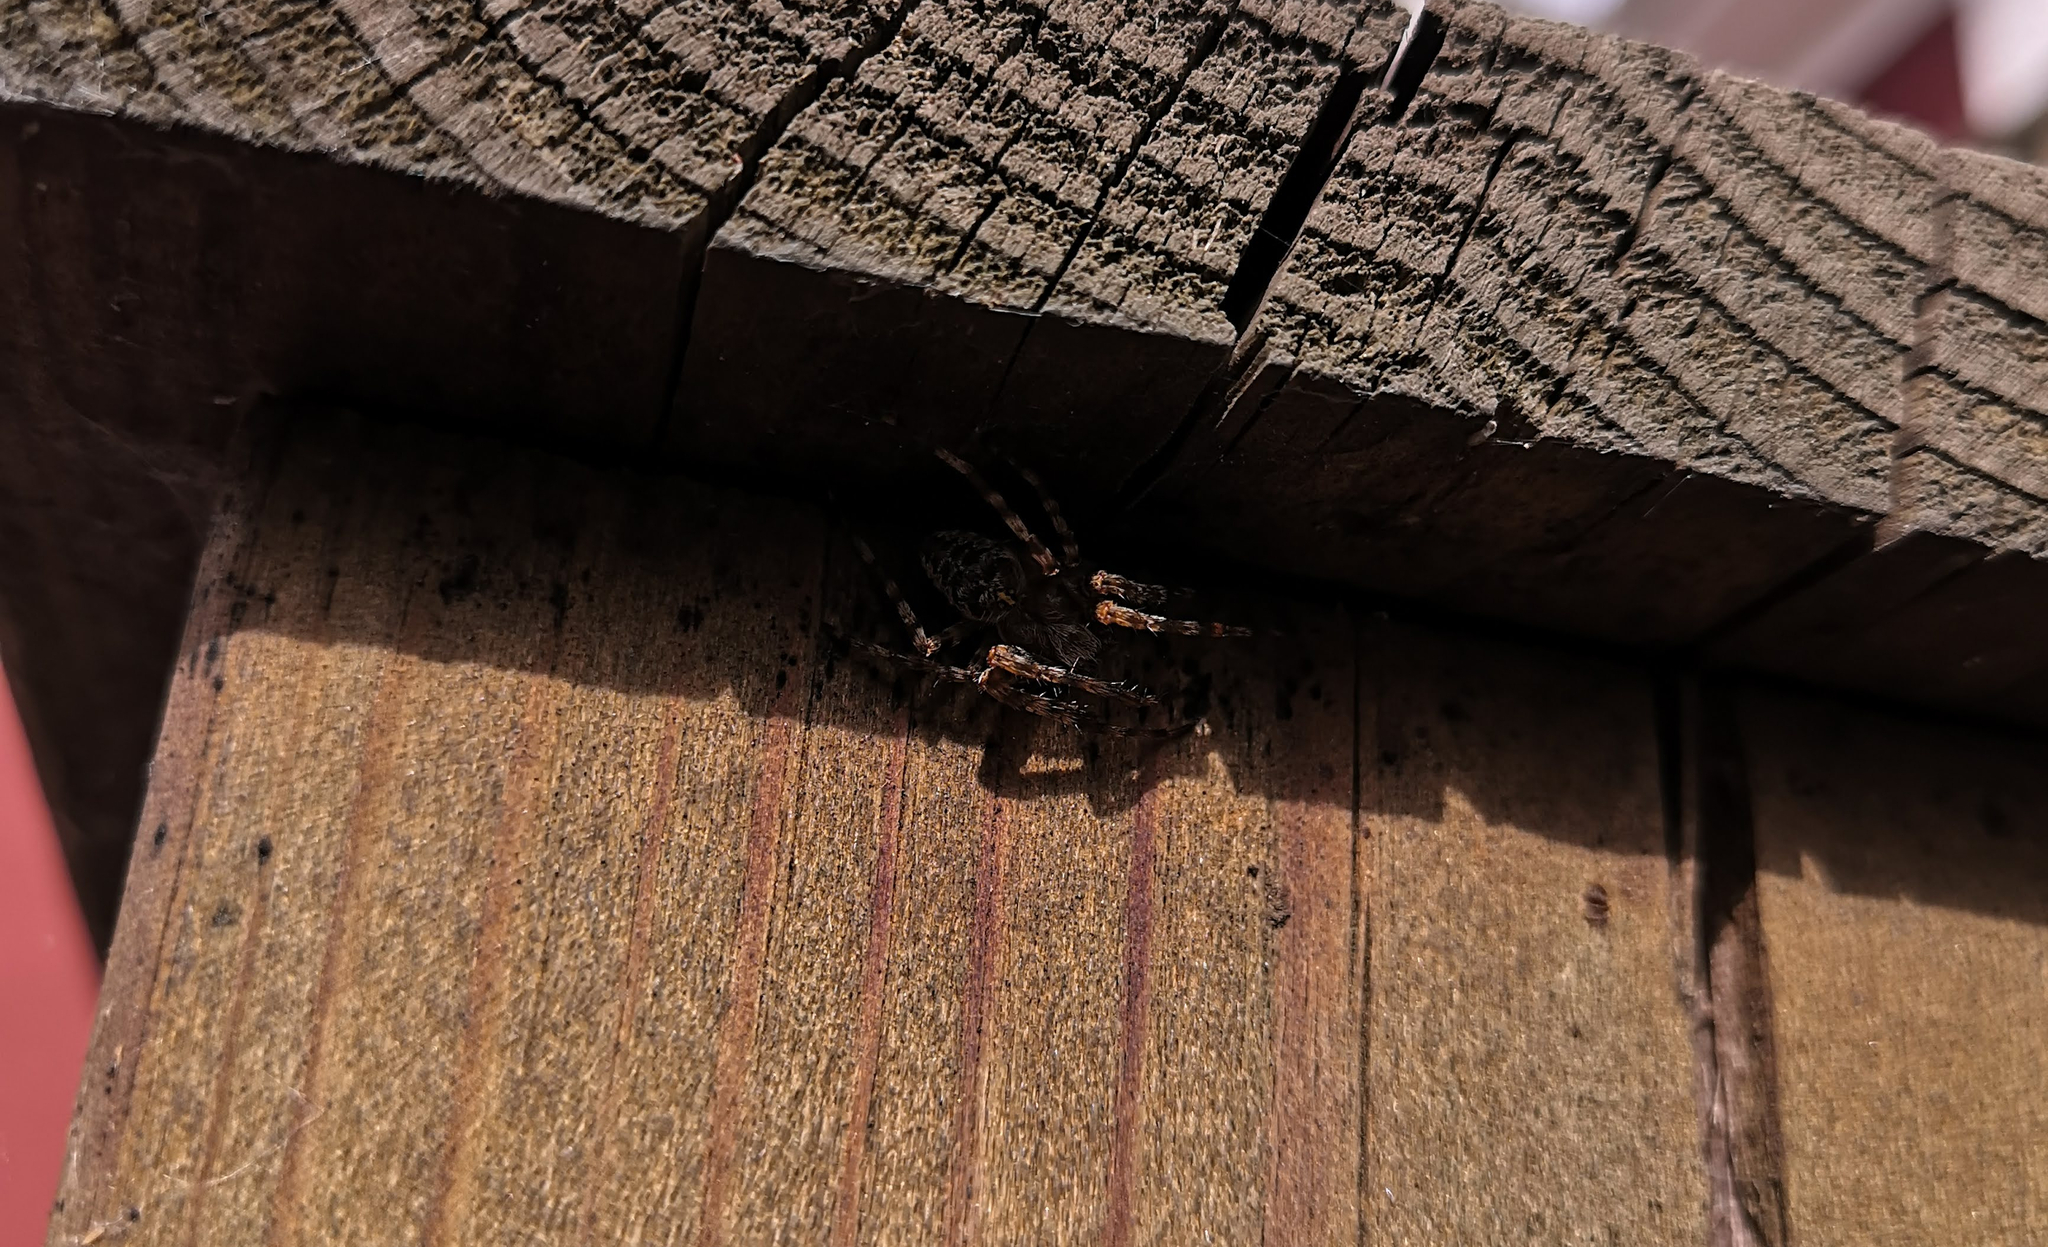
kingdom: Animalia
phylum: Arthropoda
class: Arachnida
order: Araneae
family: Araneidae
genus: Araneus
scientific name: Araneus diadematus
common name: Cross orbweaver
